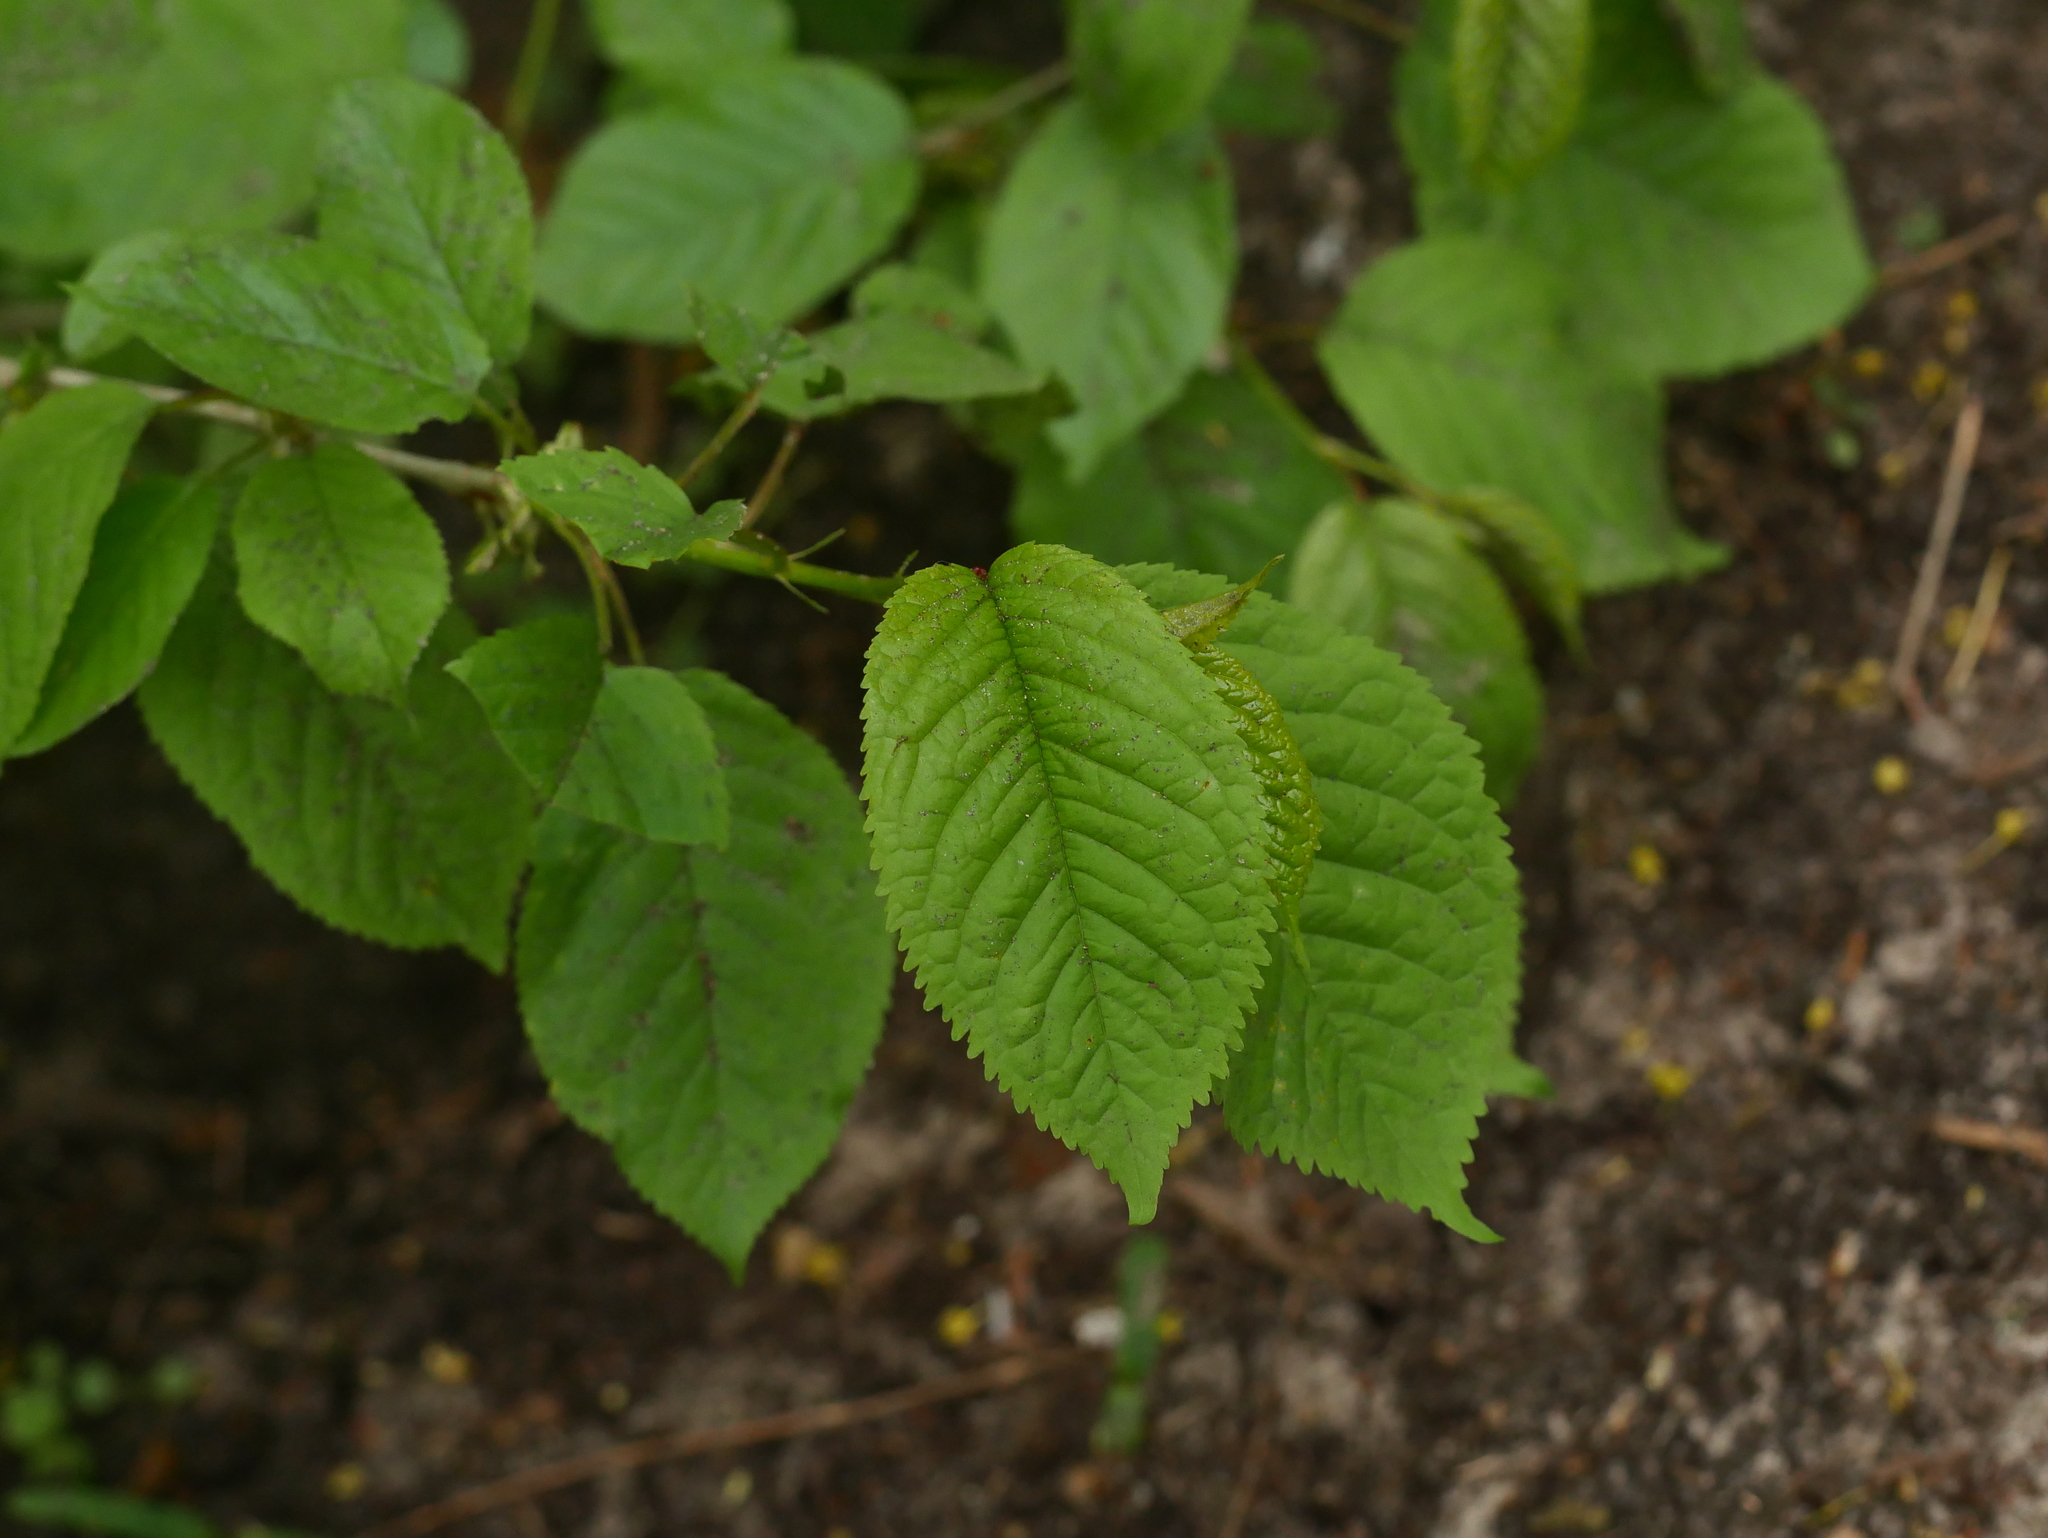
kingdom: Plantae
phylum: Tracheophyta
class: Magnoliopsida
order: Rosales
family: Rosaceae
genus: Prunus
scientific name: Prunus avium
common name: Sweet cherry
